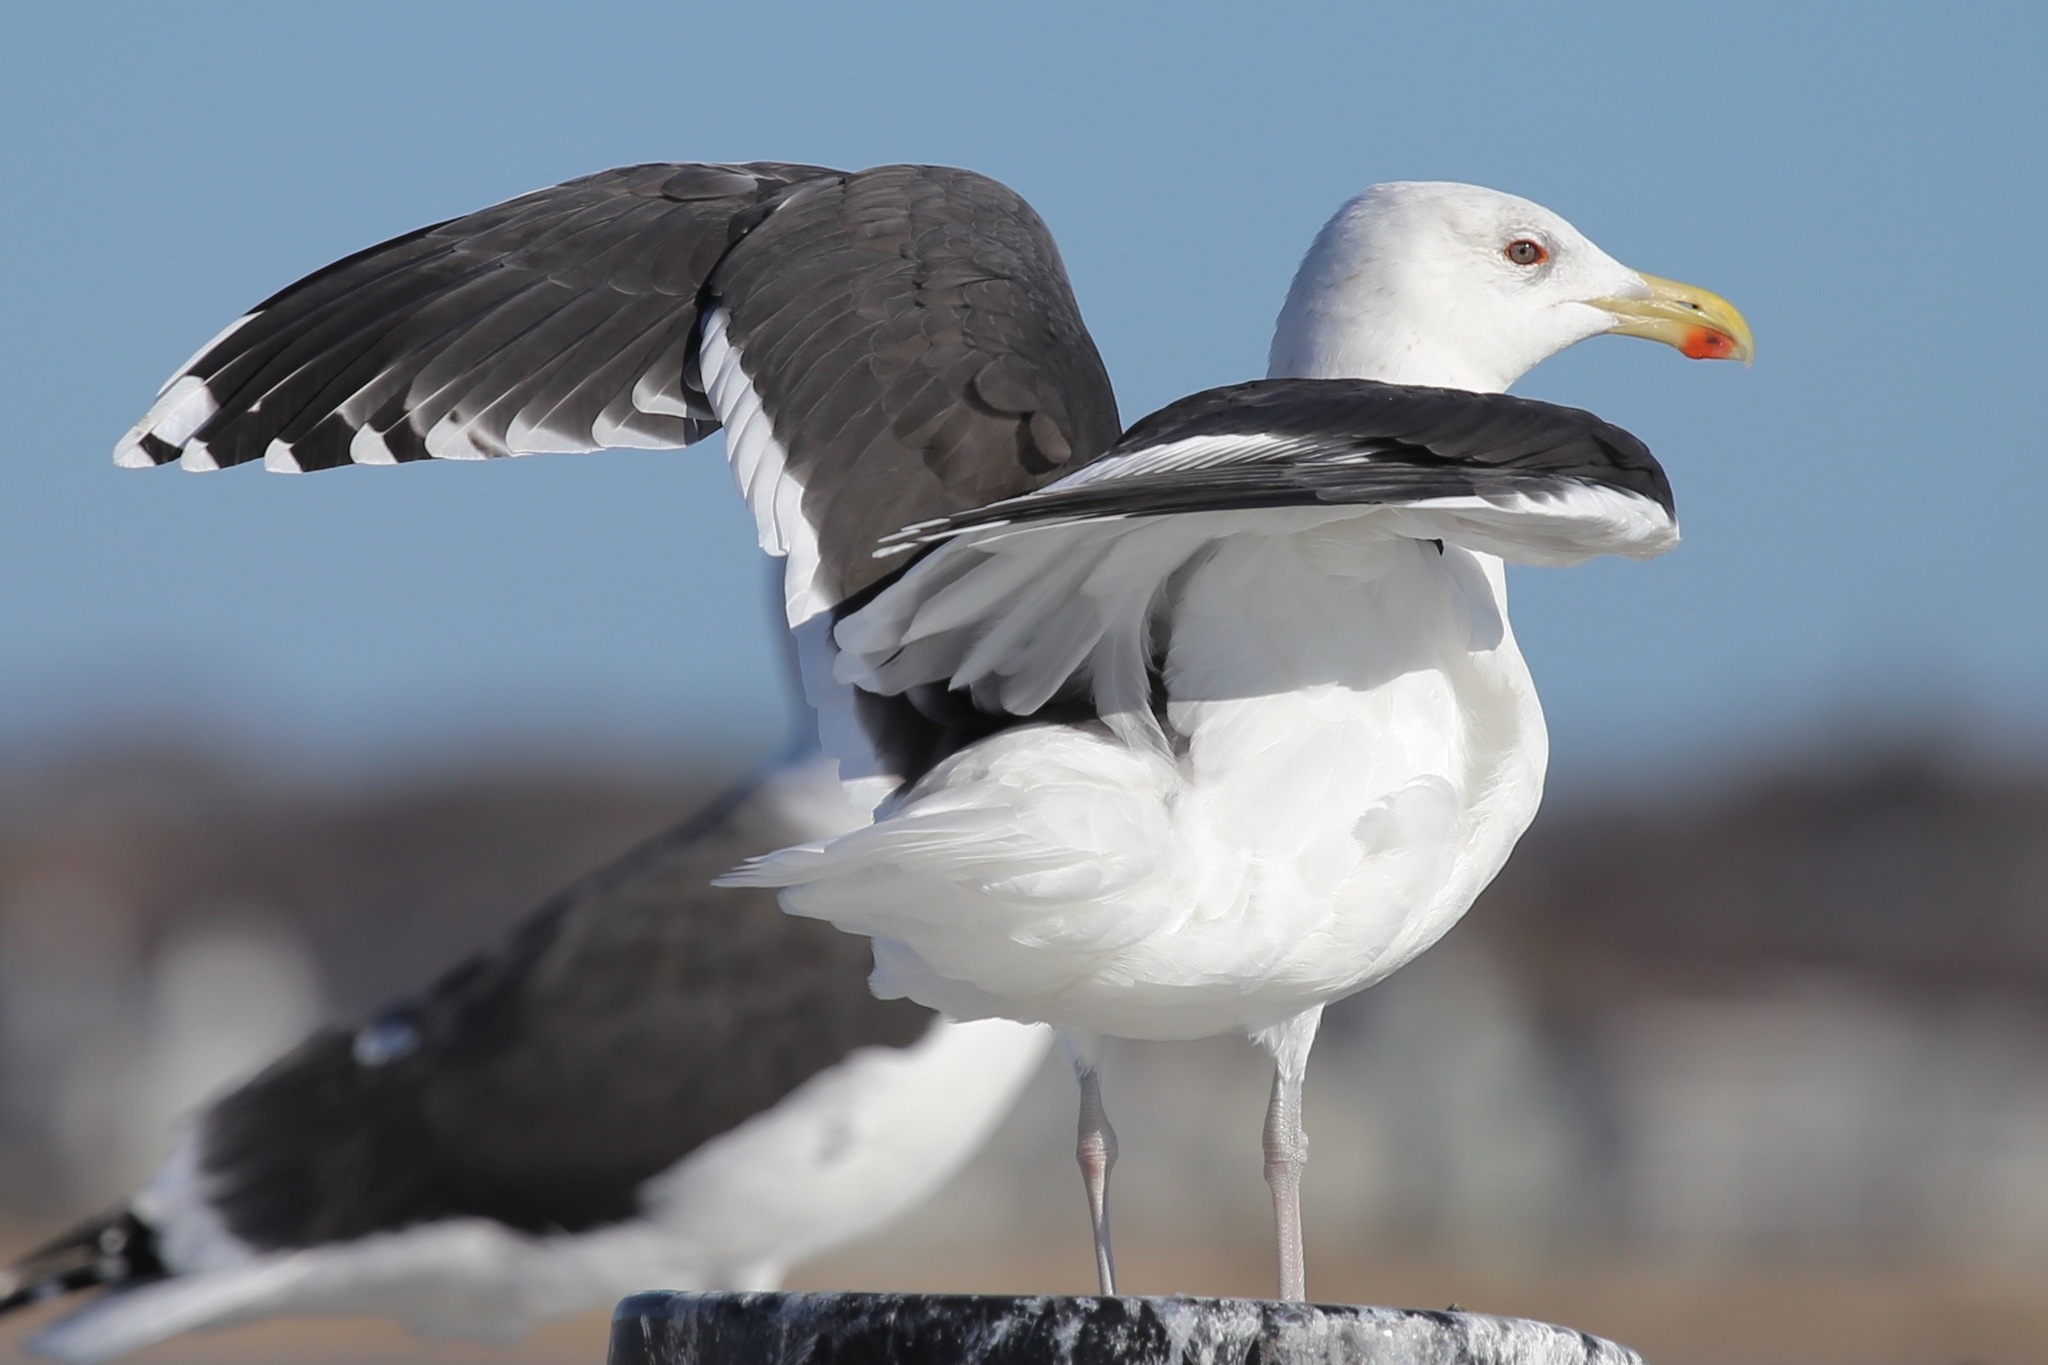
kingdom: Animalia
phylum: Chordata
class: Aves
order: Charadriiformes
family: Laridae
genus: Larus
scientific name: Larus marinus
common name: Great black-backed gull
